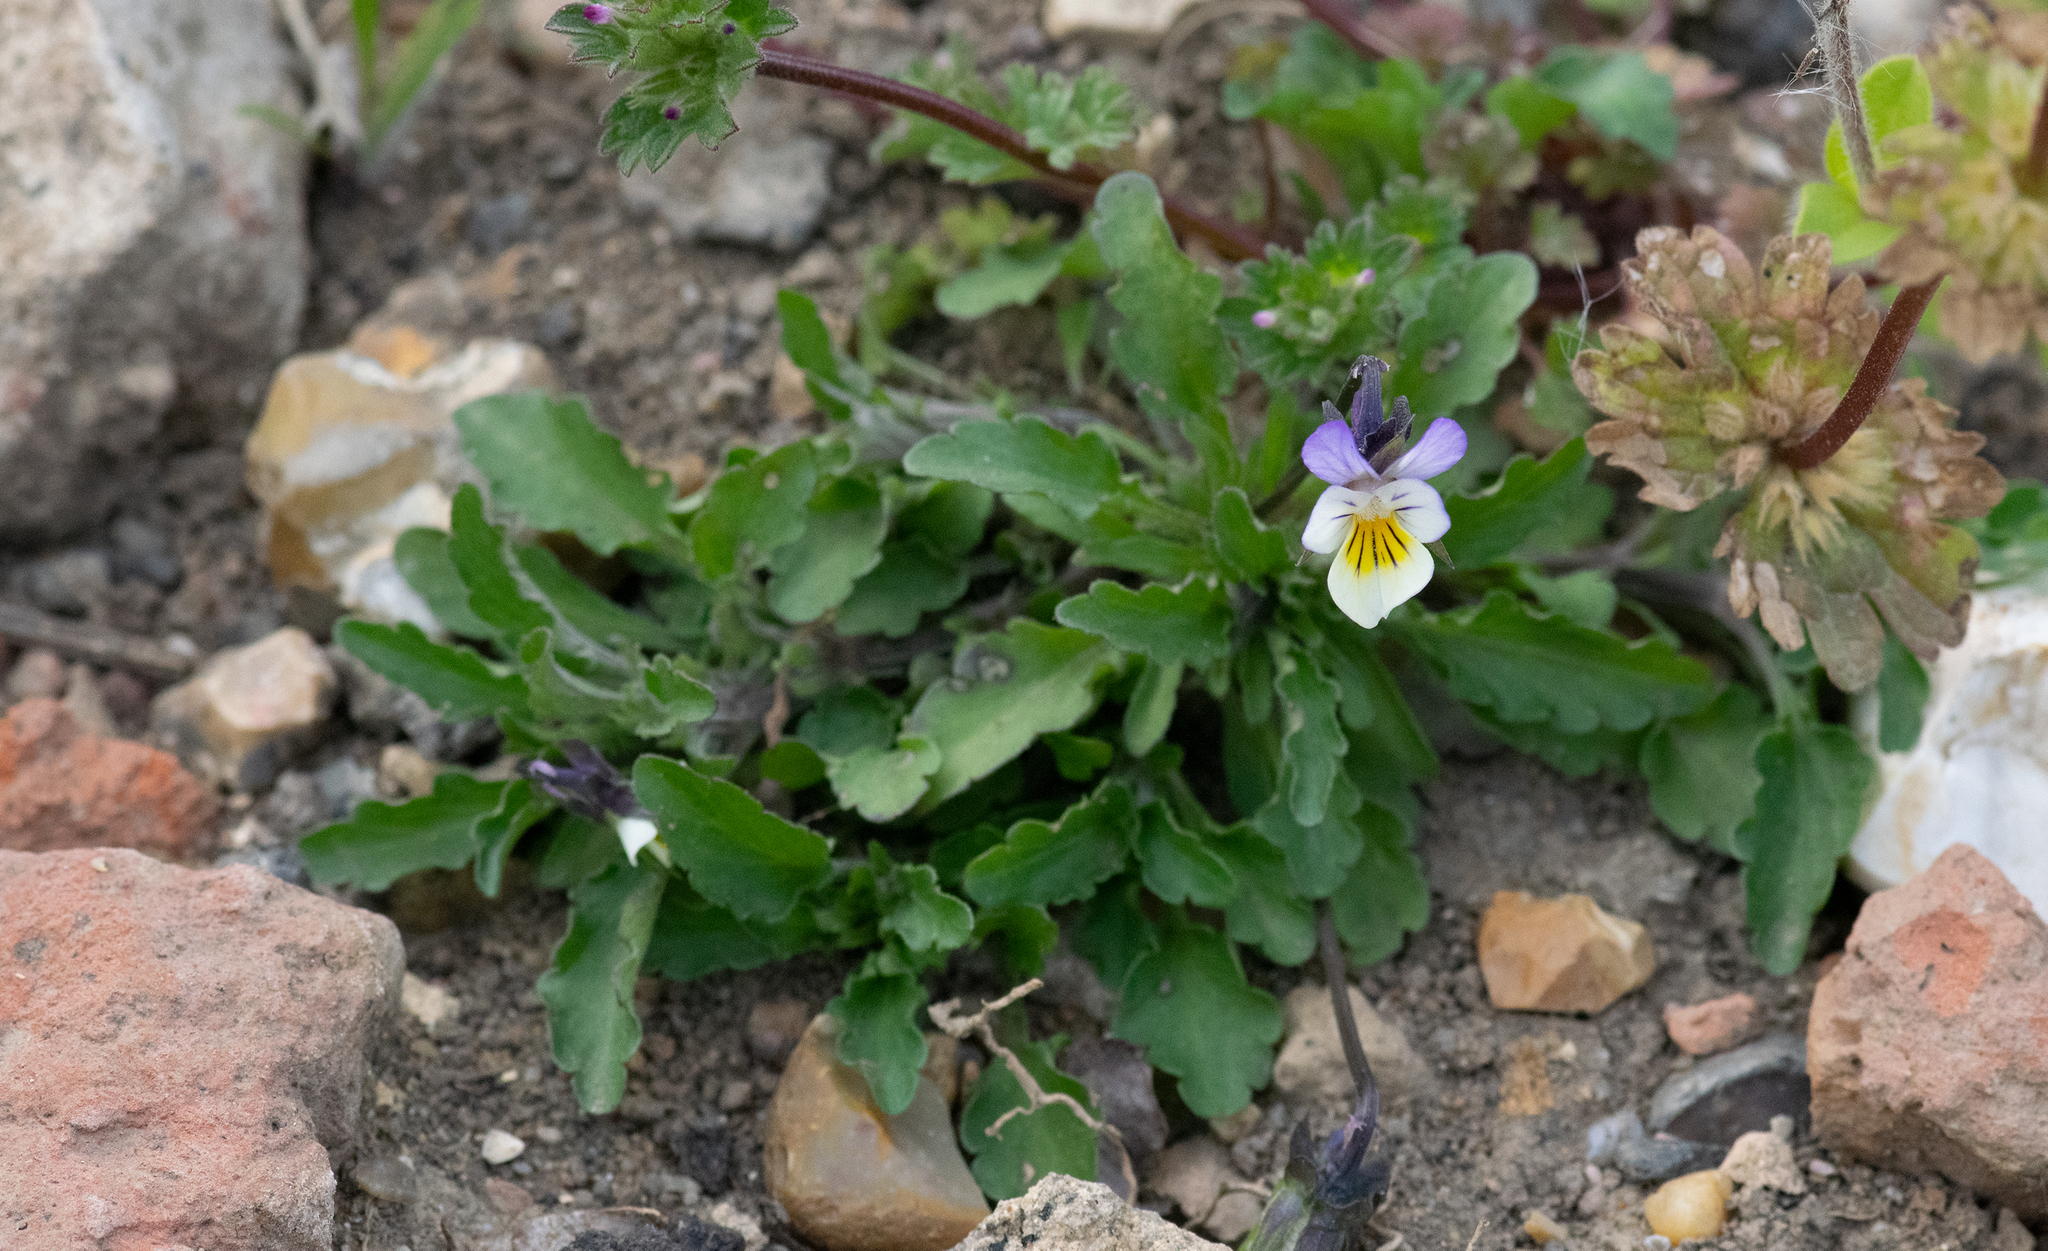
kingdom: Plantae
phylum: Tracheophyta
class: Magnoliopsida
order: Malpighiales
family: Violaceae
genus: Viola
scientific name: Viola tricolor
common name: Pansy
